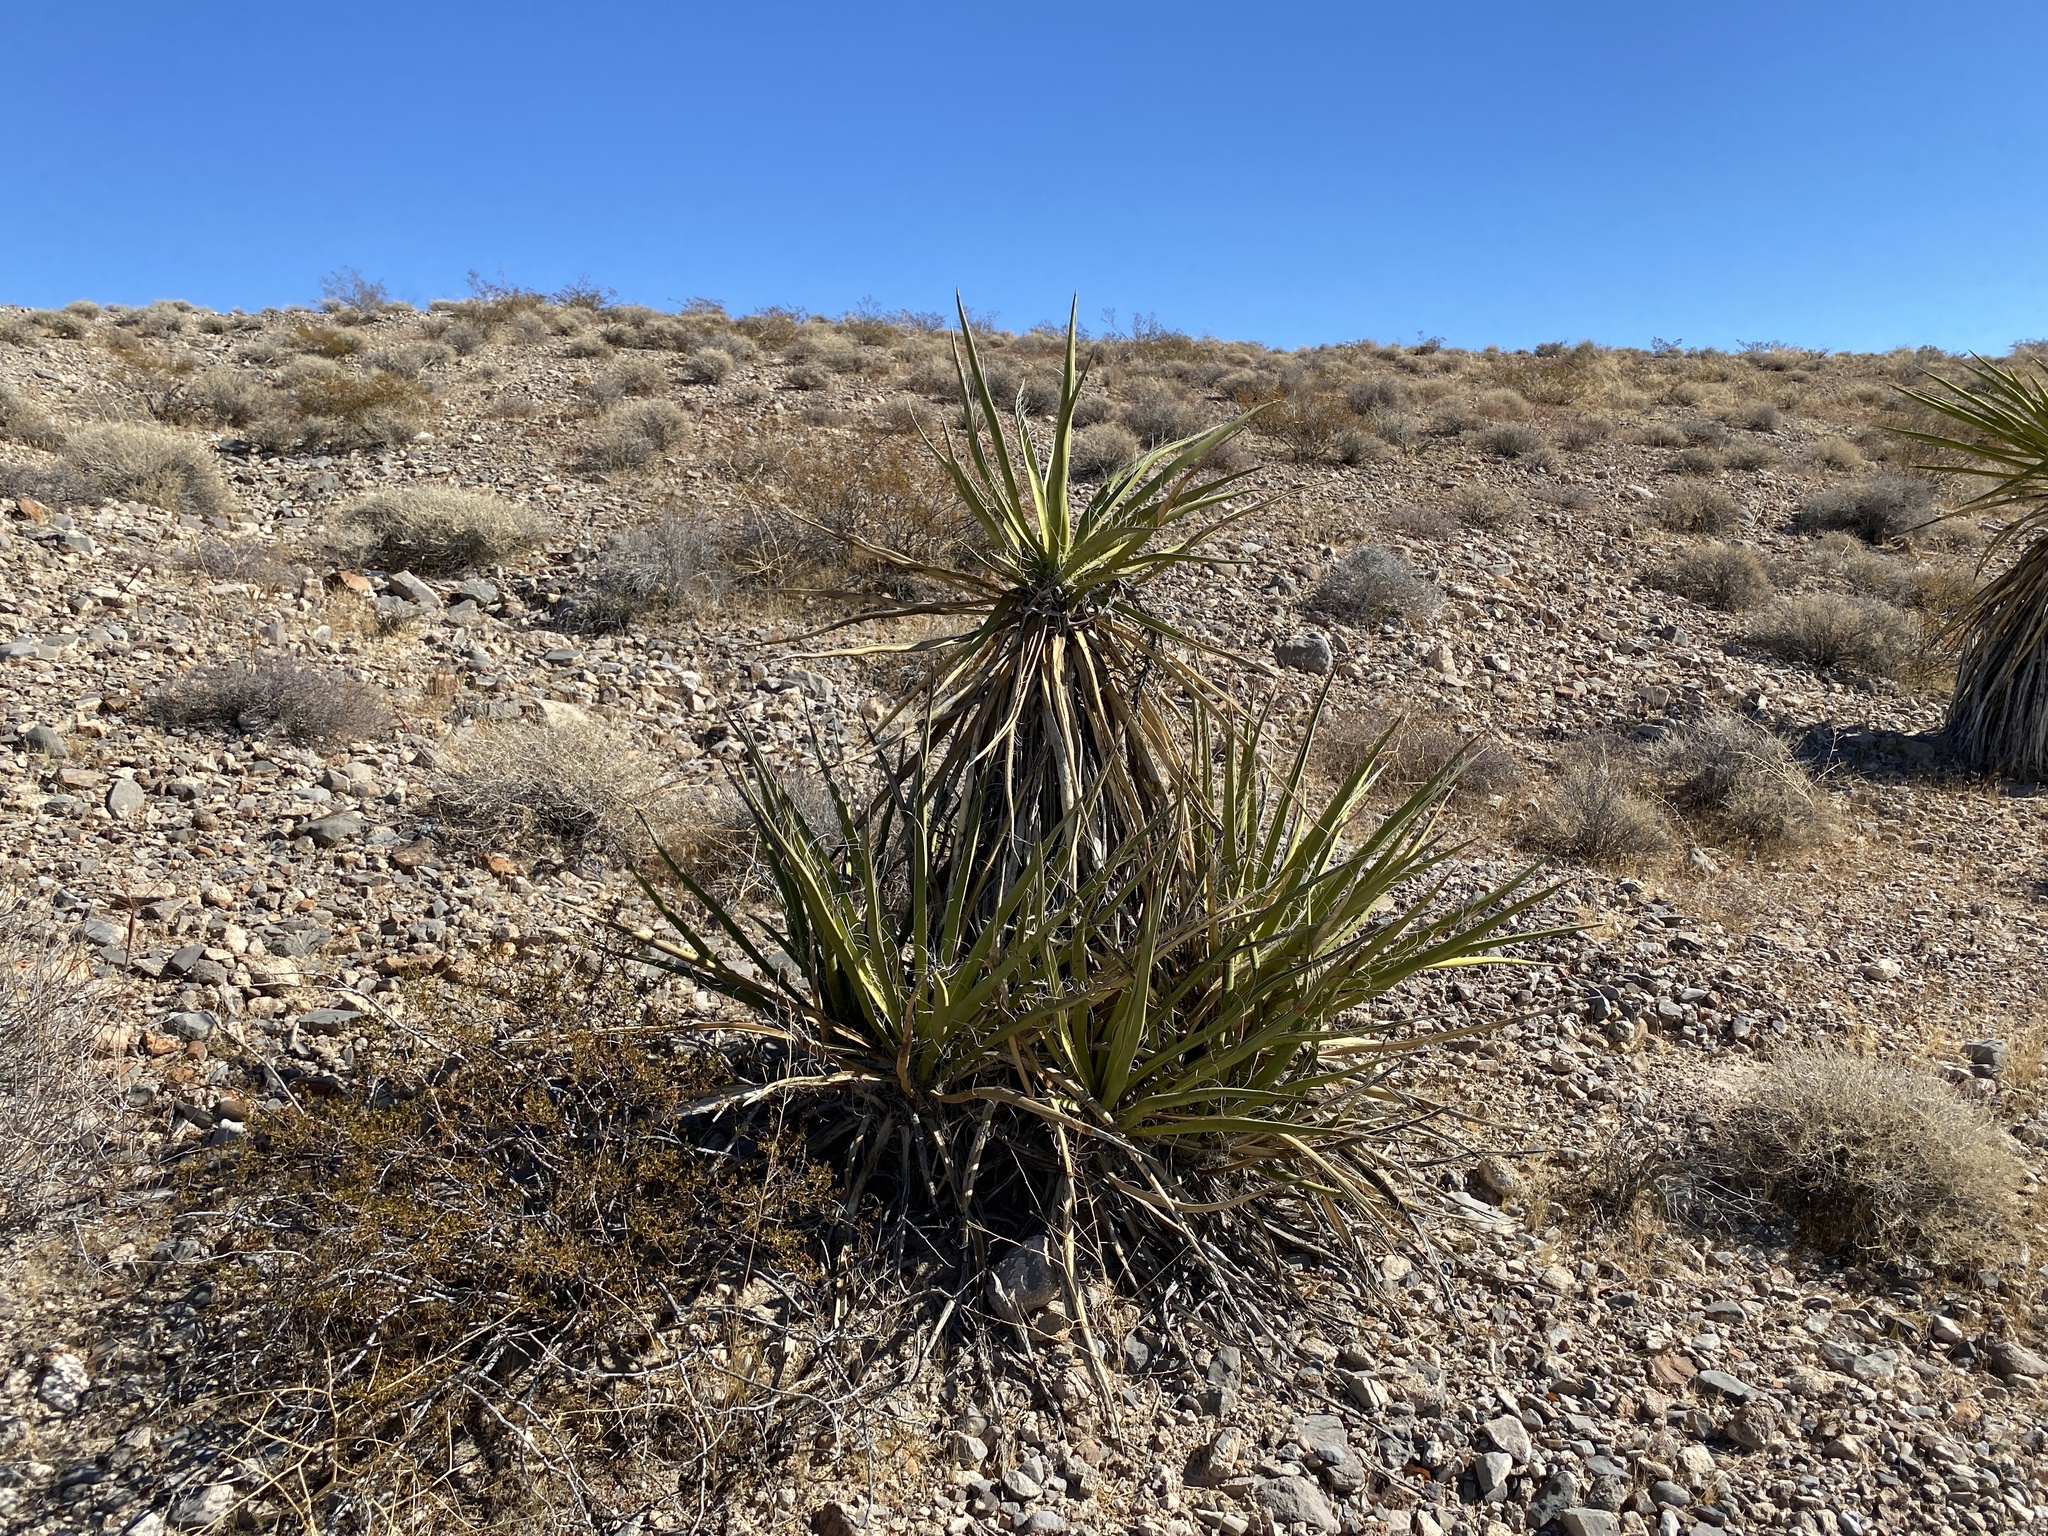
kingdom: Plantae
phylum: Tracheophyta
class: Liliopsida
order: Asparagales
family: Asparagaceae
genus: Yucca
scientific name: Yucca schidigera
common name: Mojave yucca
